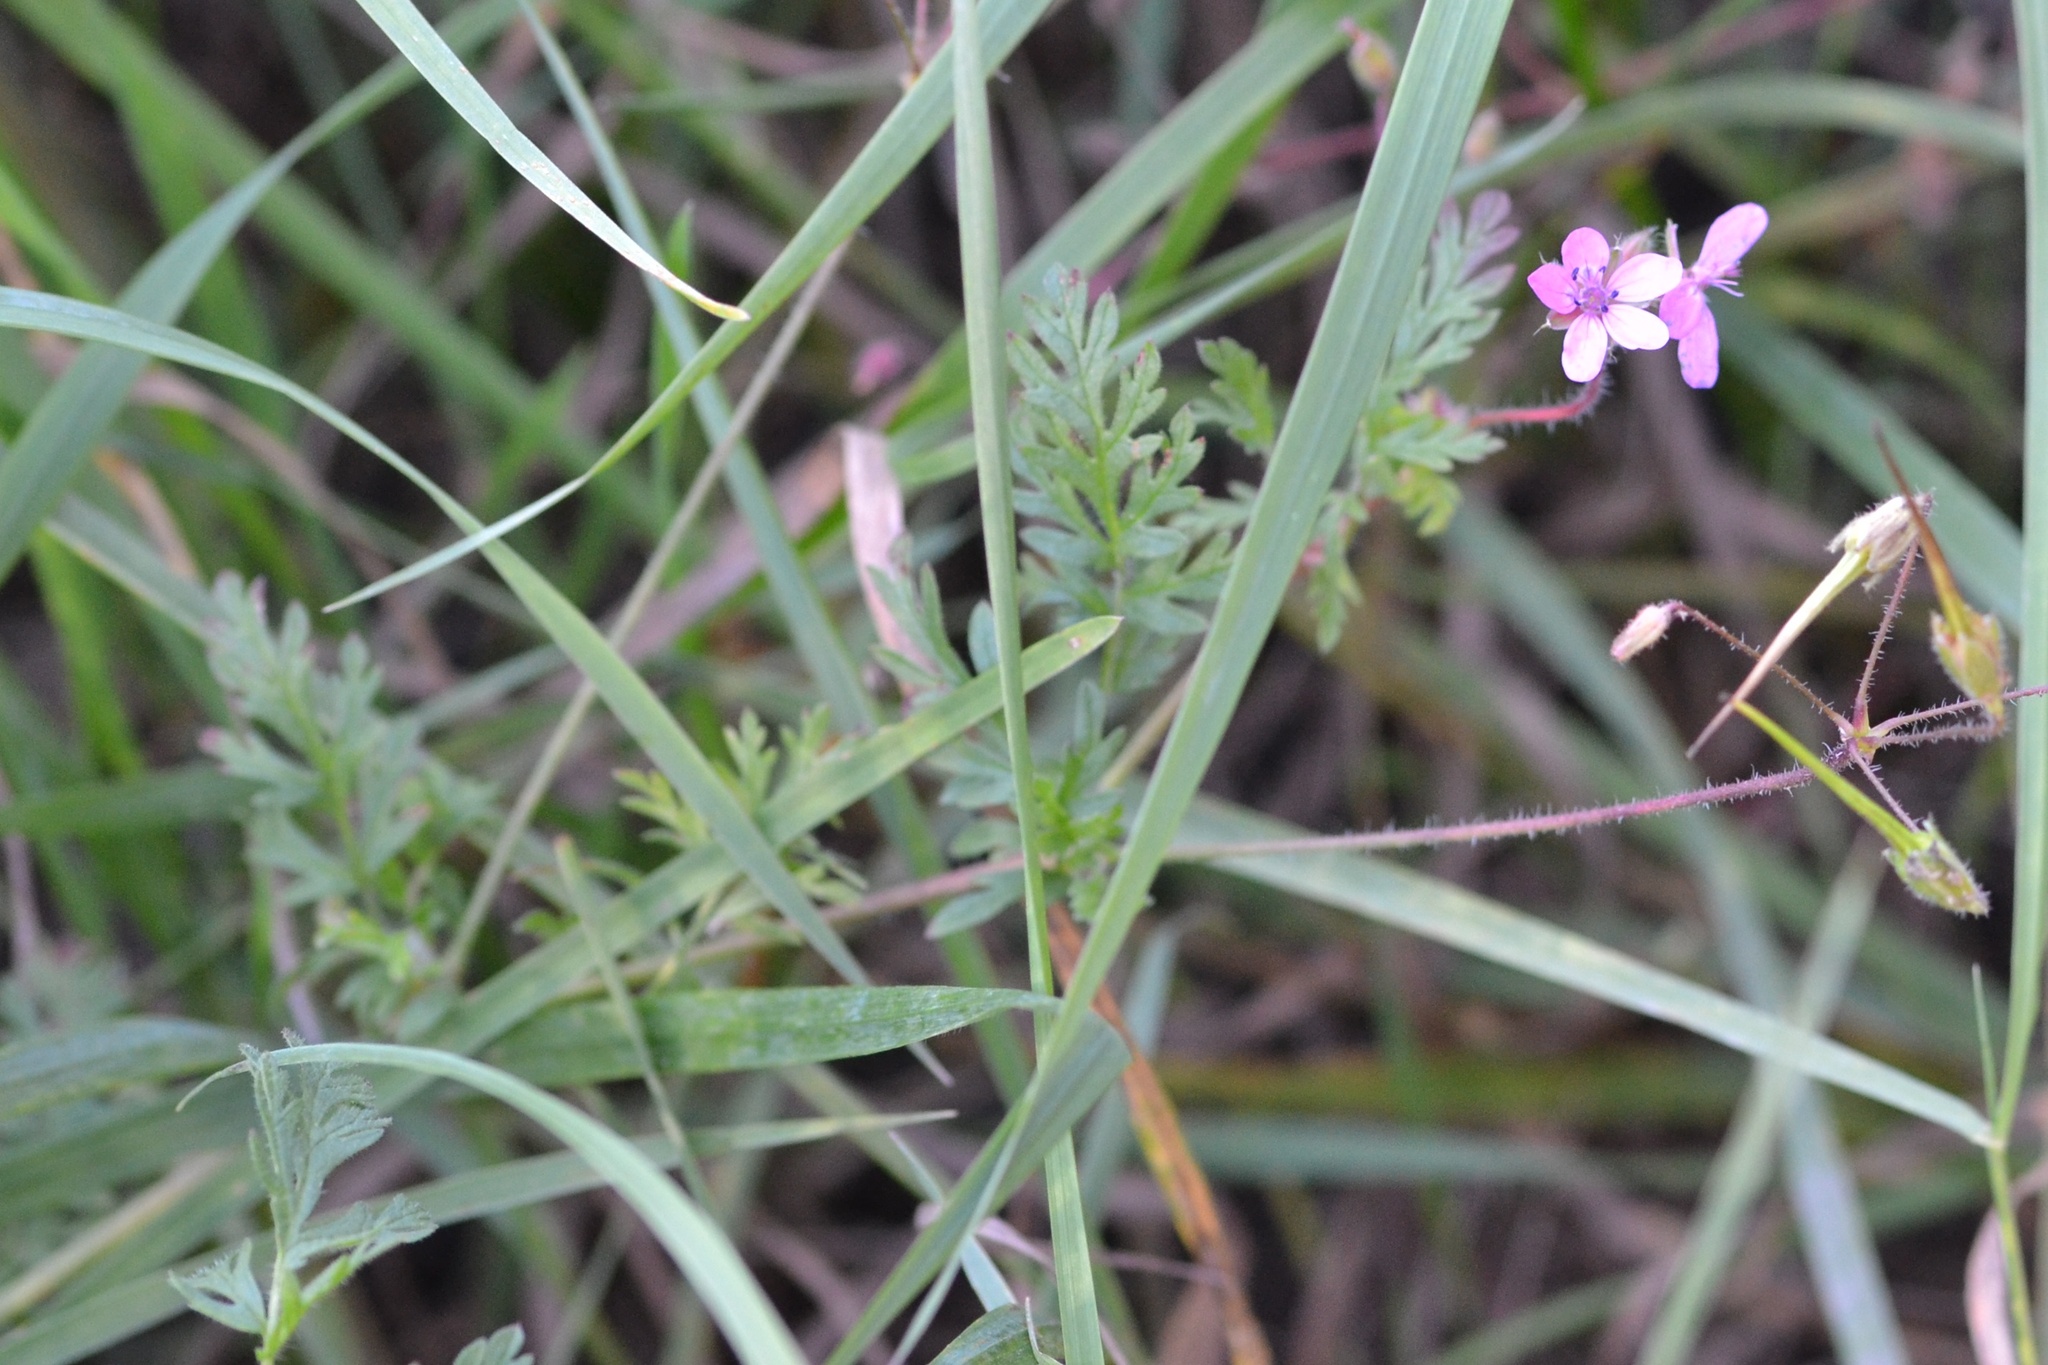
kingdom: Plantae
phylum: Tracheophyta
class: Magnoliopsida
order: Geraniales
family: Geraniaceae
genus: Erodium
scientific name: Erodium cicutarium
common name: Common stork's-bill
